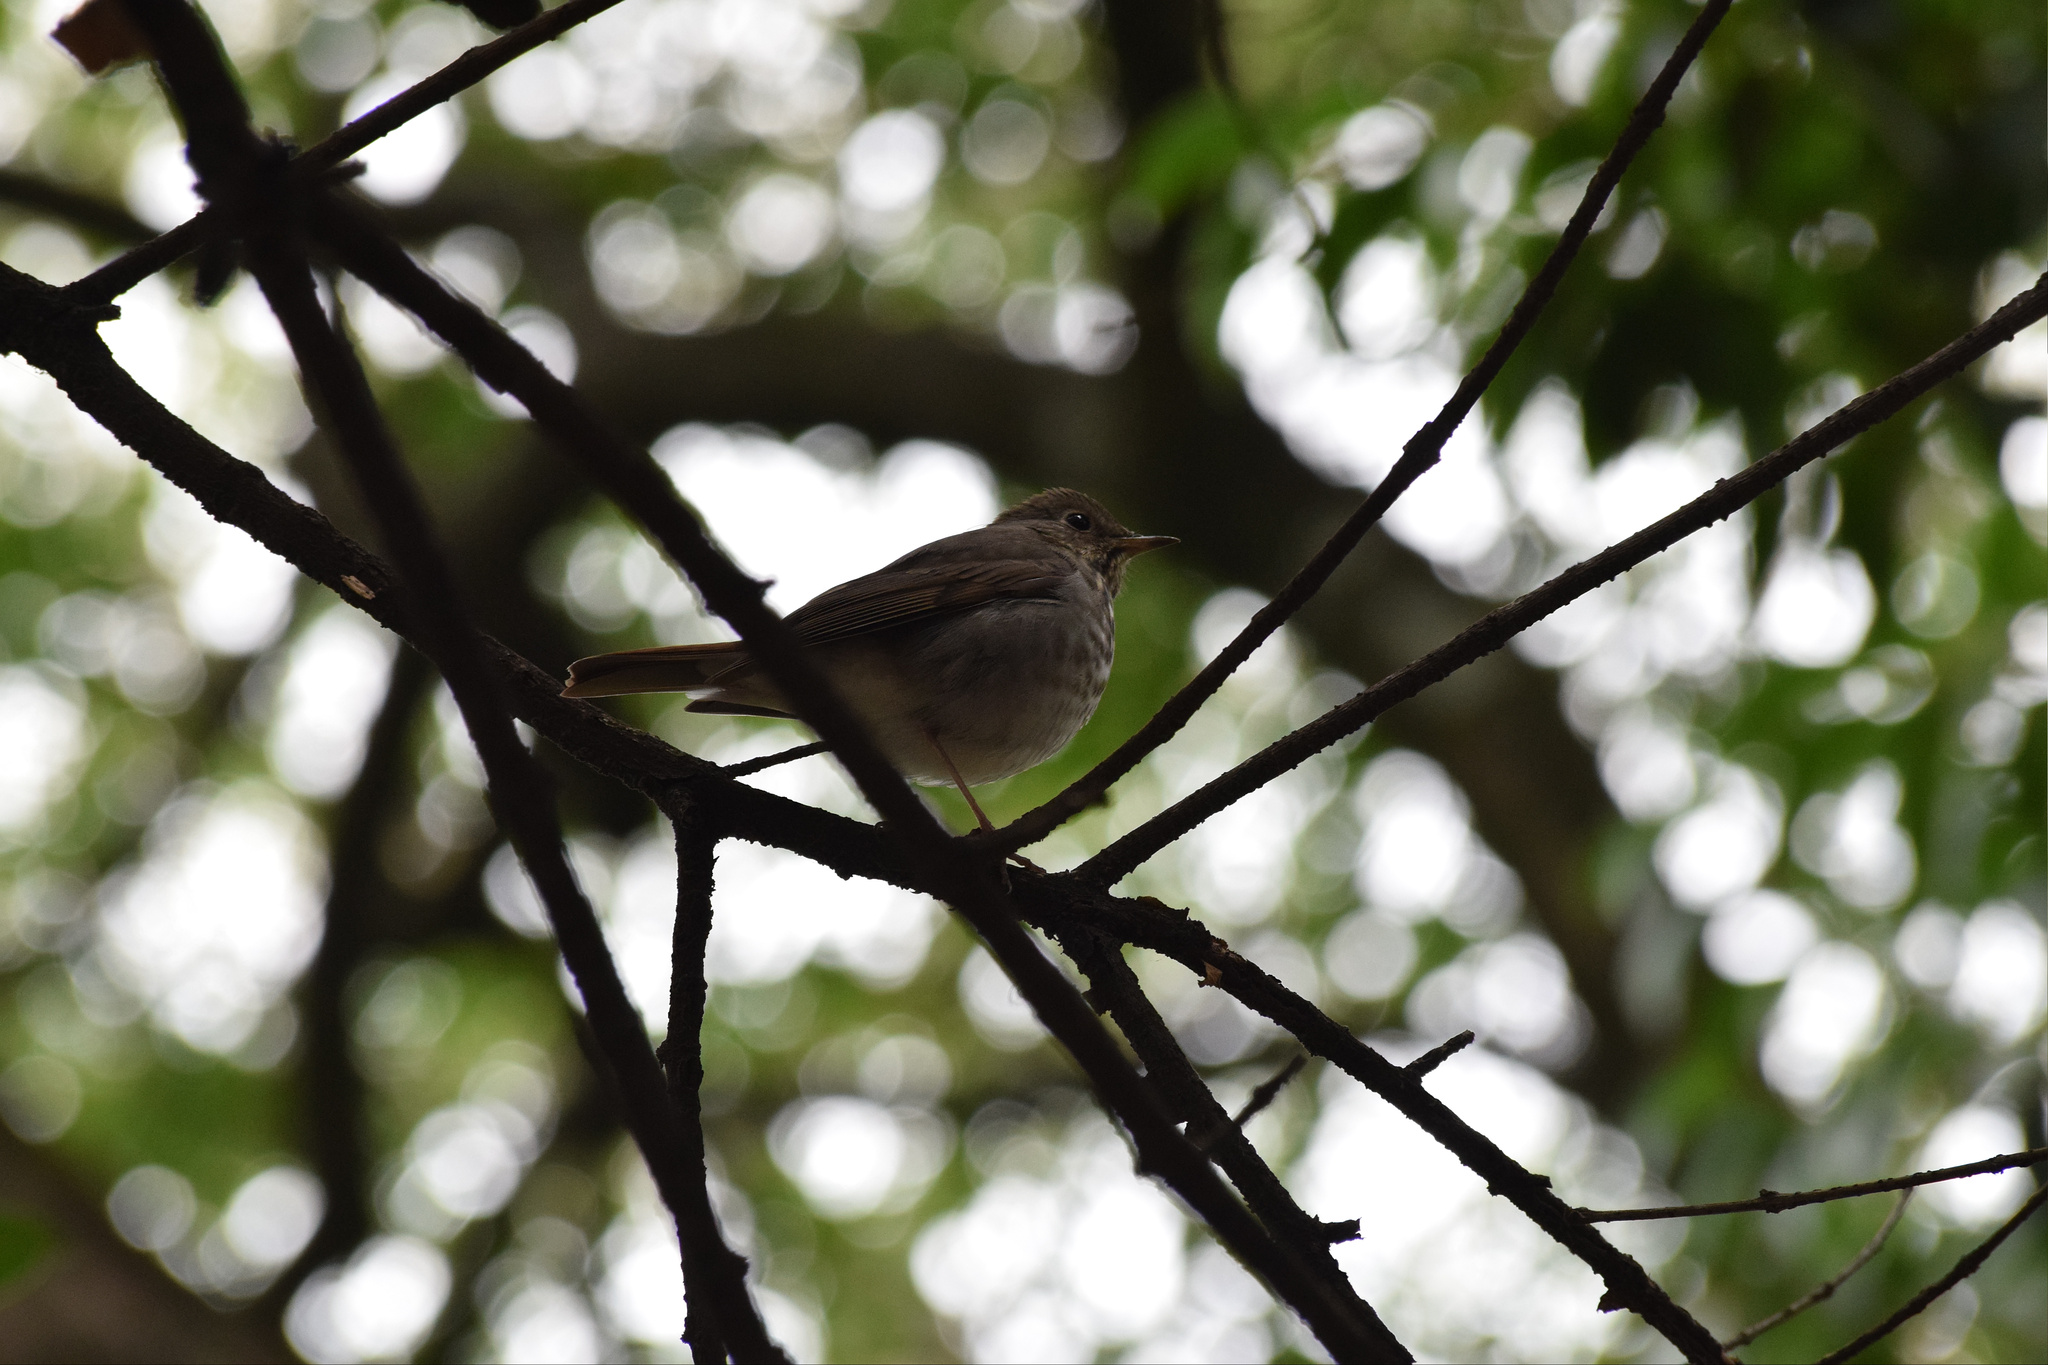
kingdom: Animalia
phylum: Chordata
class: Aves
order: Passeriformes
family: Turdidae
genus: Catharus
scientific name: Catharus guttatus
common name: Hermit thrush
